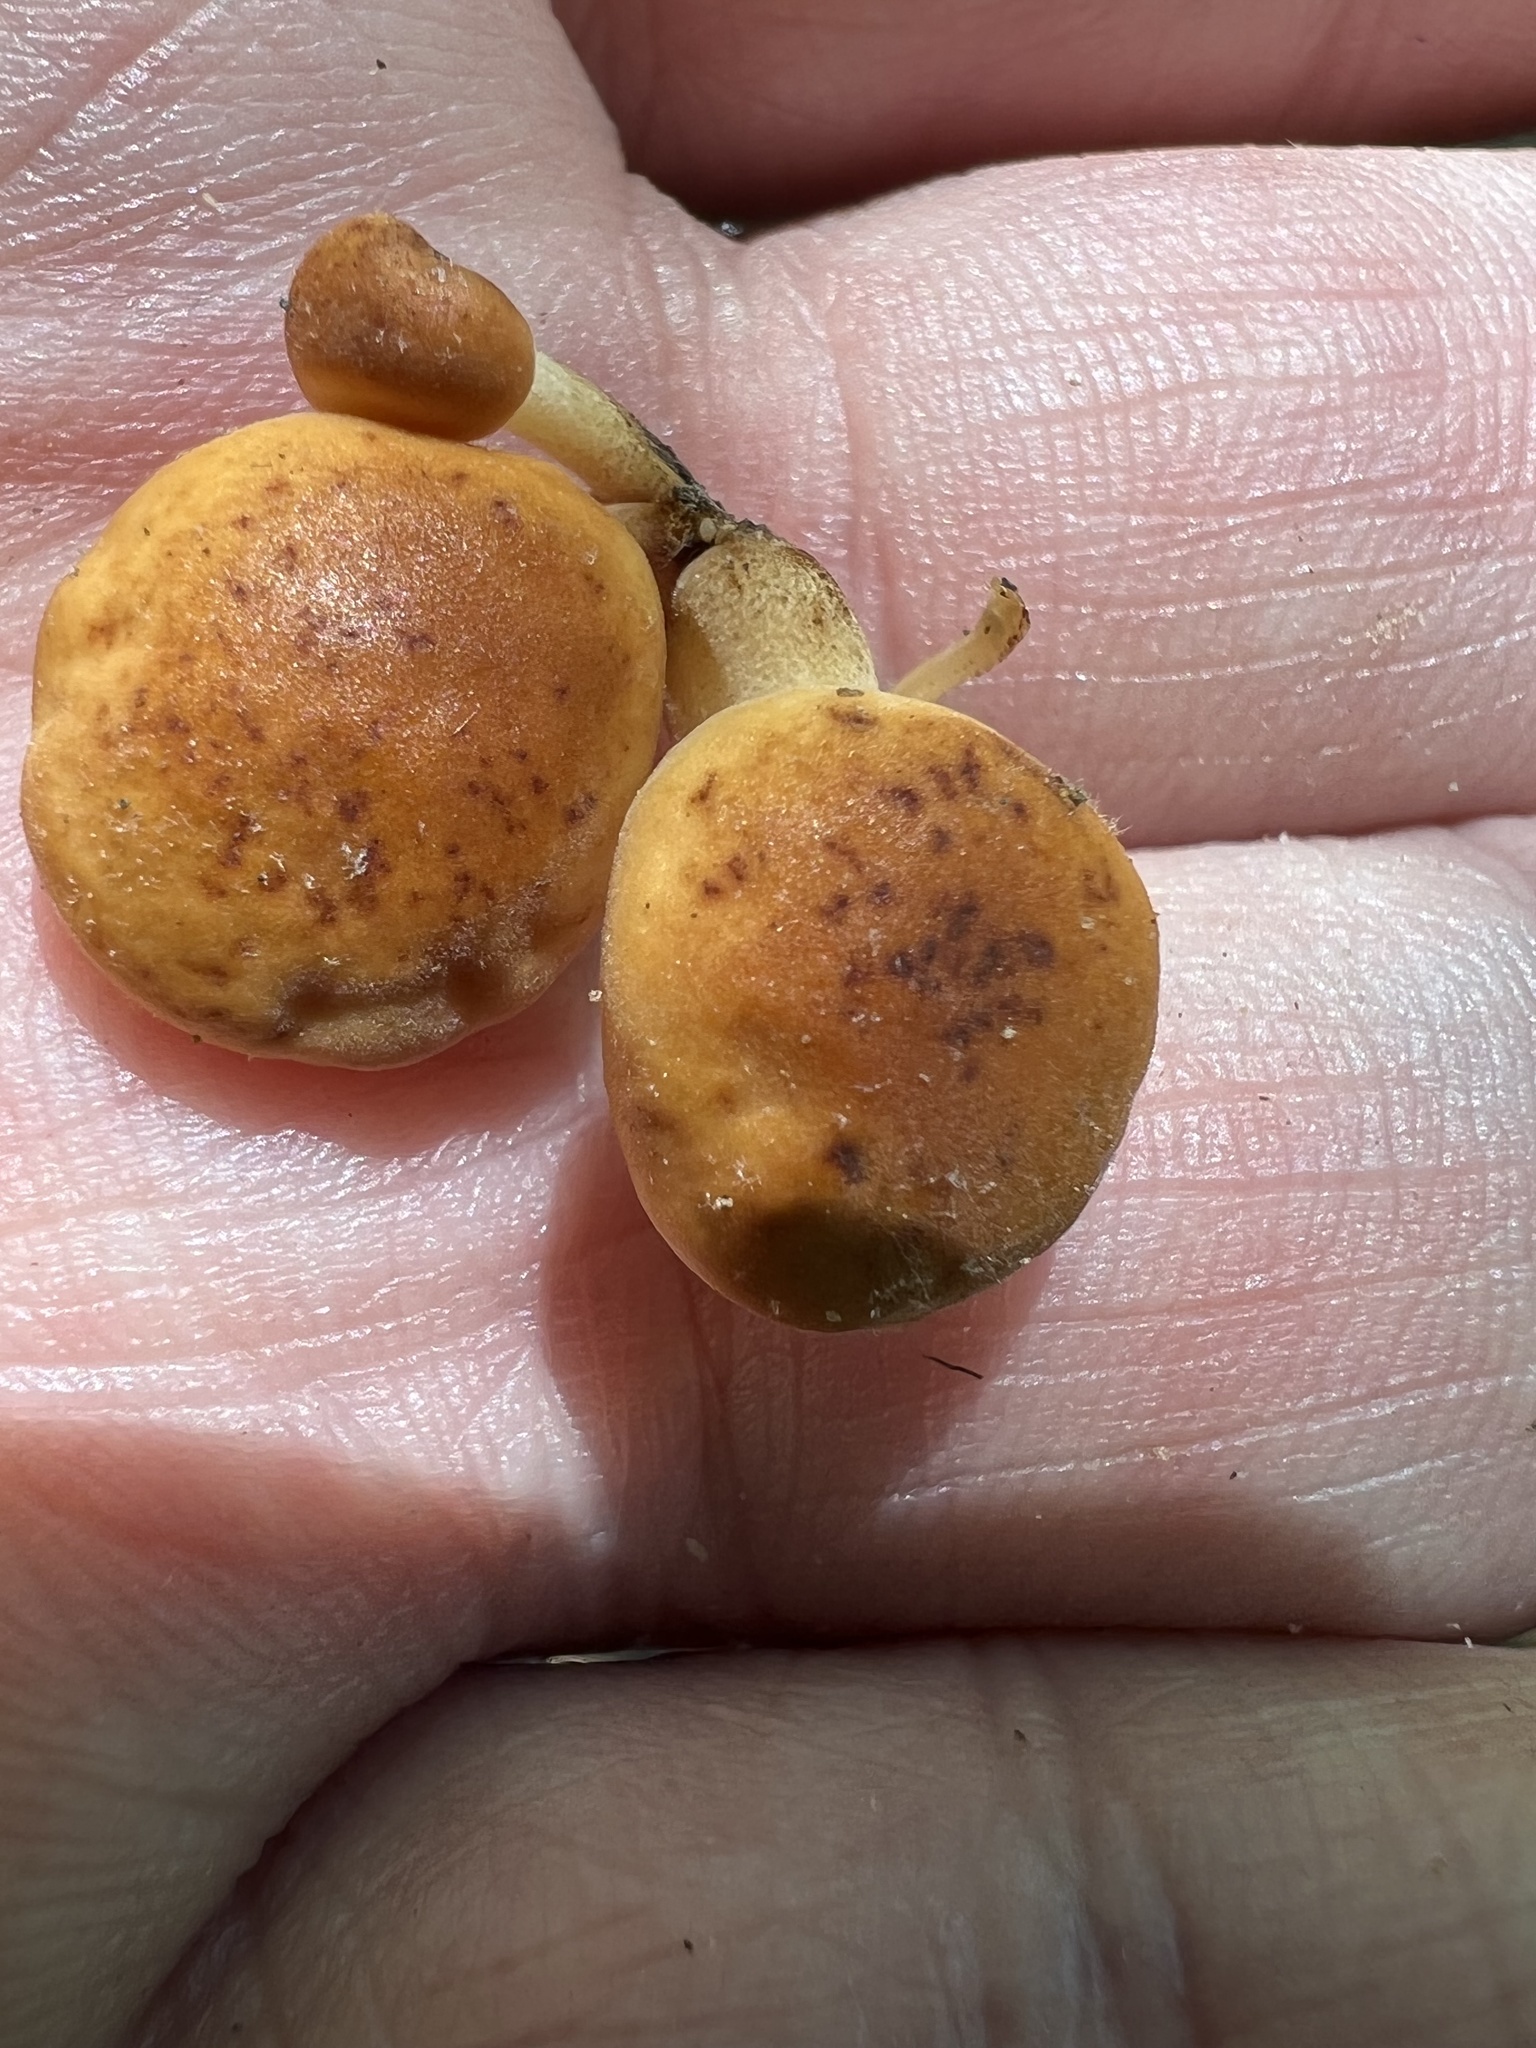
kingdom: Fungi
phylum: Basidiomycota
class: Agaricomycetes
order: Agaricales
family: Physalacriaceae
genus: Flammulina
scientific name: Flammulina velutipes
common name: Velvet shank
